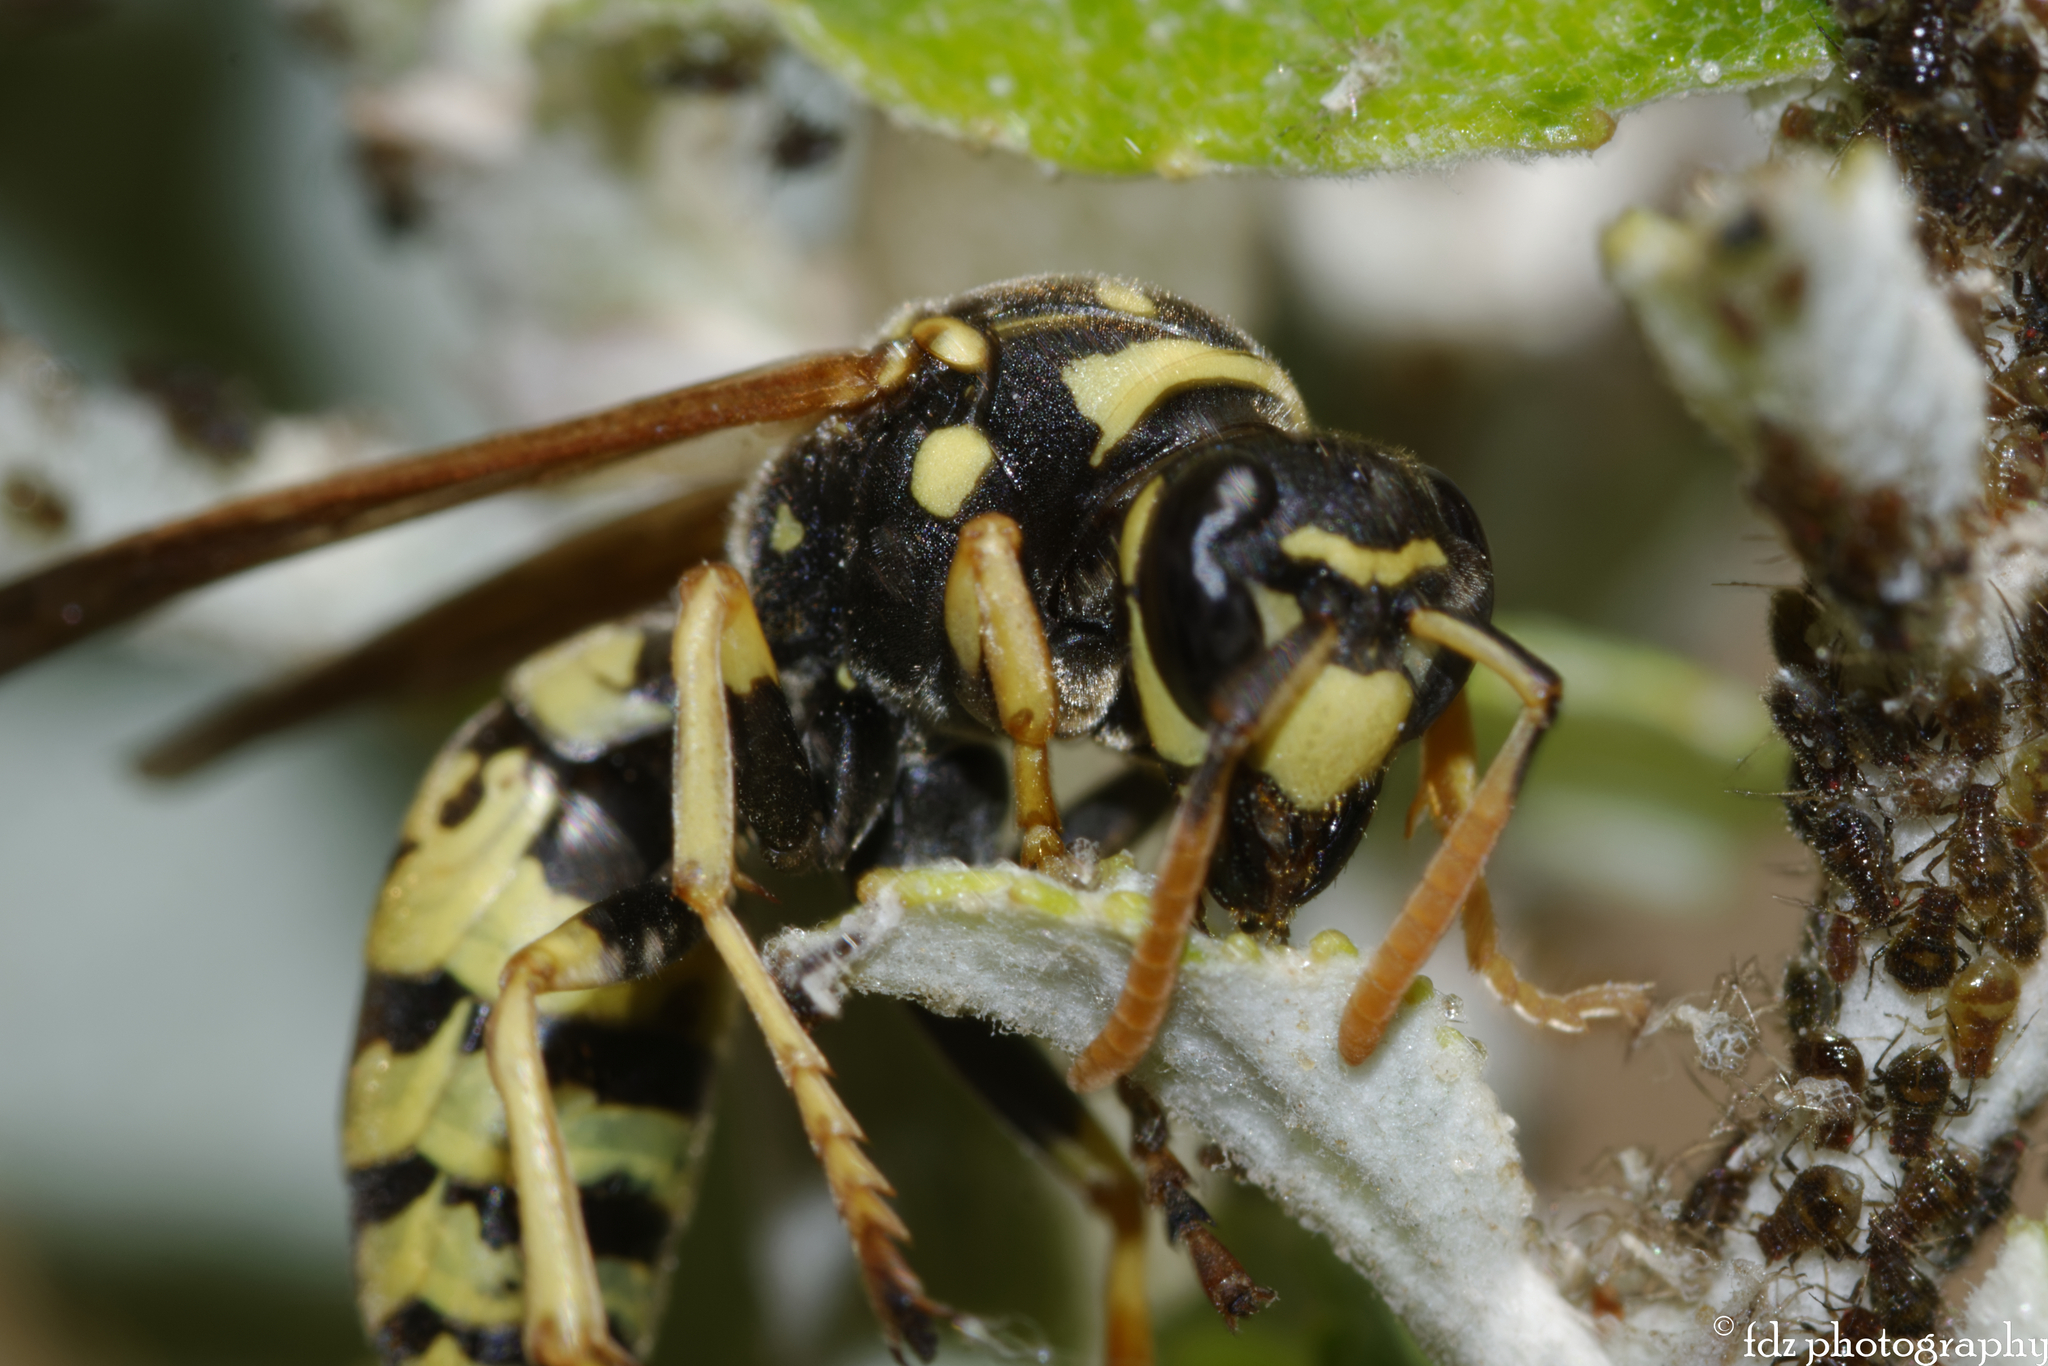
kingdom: Animalia
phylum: Arthropoda
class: Insecta
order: Hymenoptera
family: Eumenidae
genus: Polistes
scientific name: Polistes dominula
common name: Paper wasp
